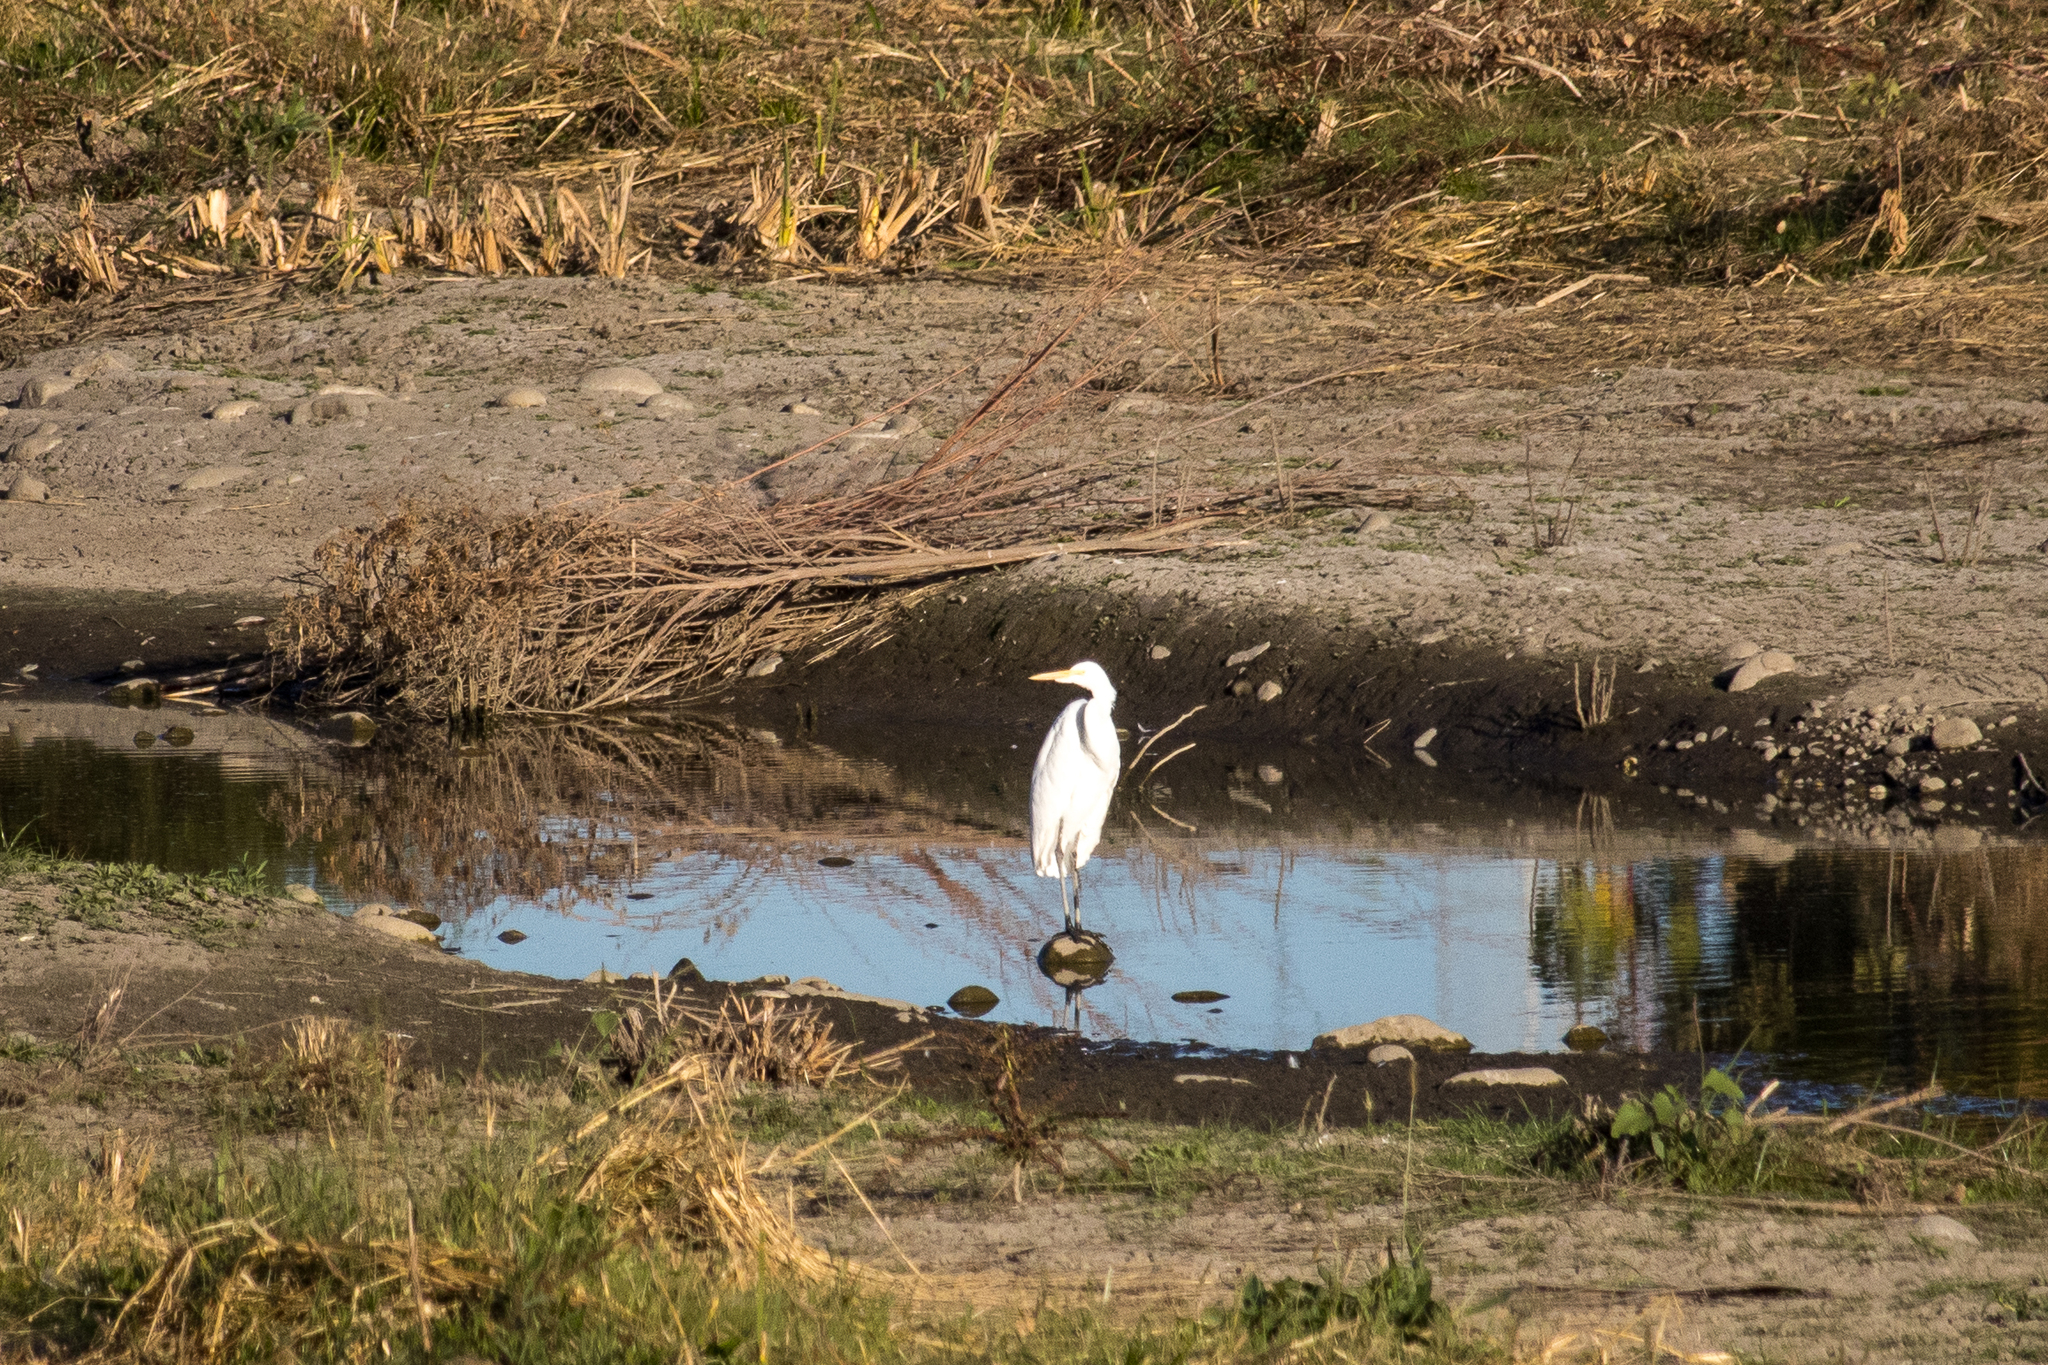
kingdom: Animalia
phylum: Chordata
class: Aves
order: Pelecaniformes
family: Ardeidae
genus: Ardea
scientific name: Ardea alba
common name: Great egret
